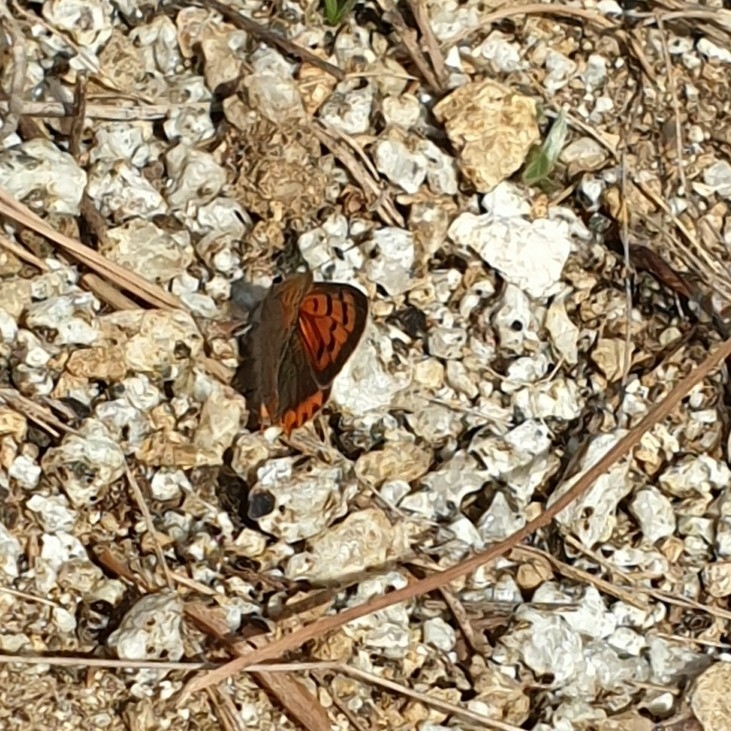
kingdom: Animalia
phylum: Arthropoda
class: Insecta
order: Lepidoptera
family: Lycaenidae
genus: Lycaena
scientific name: Lycaena phlaeas
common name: Small copper
